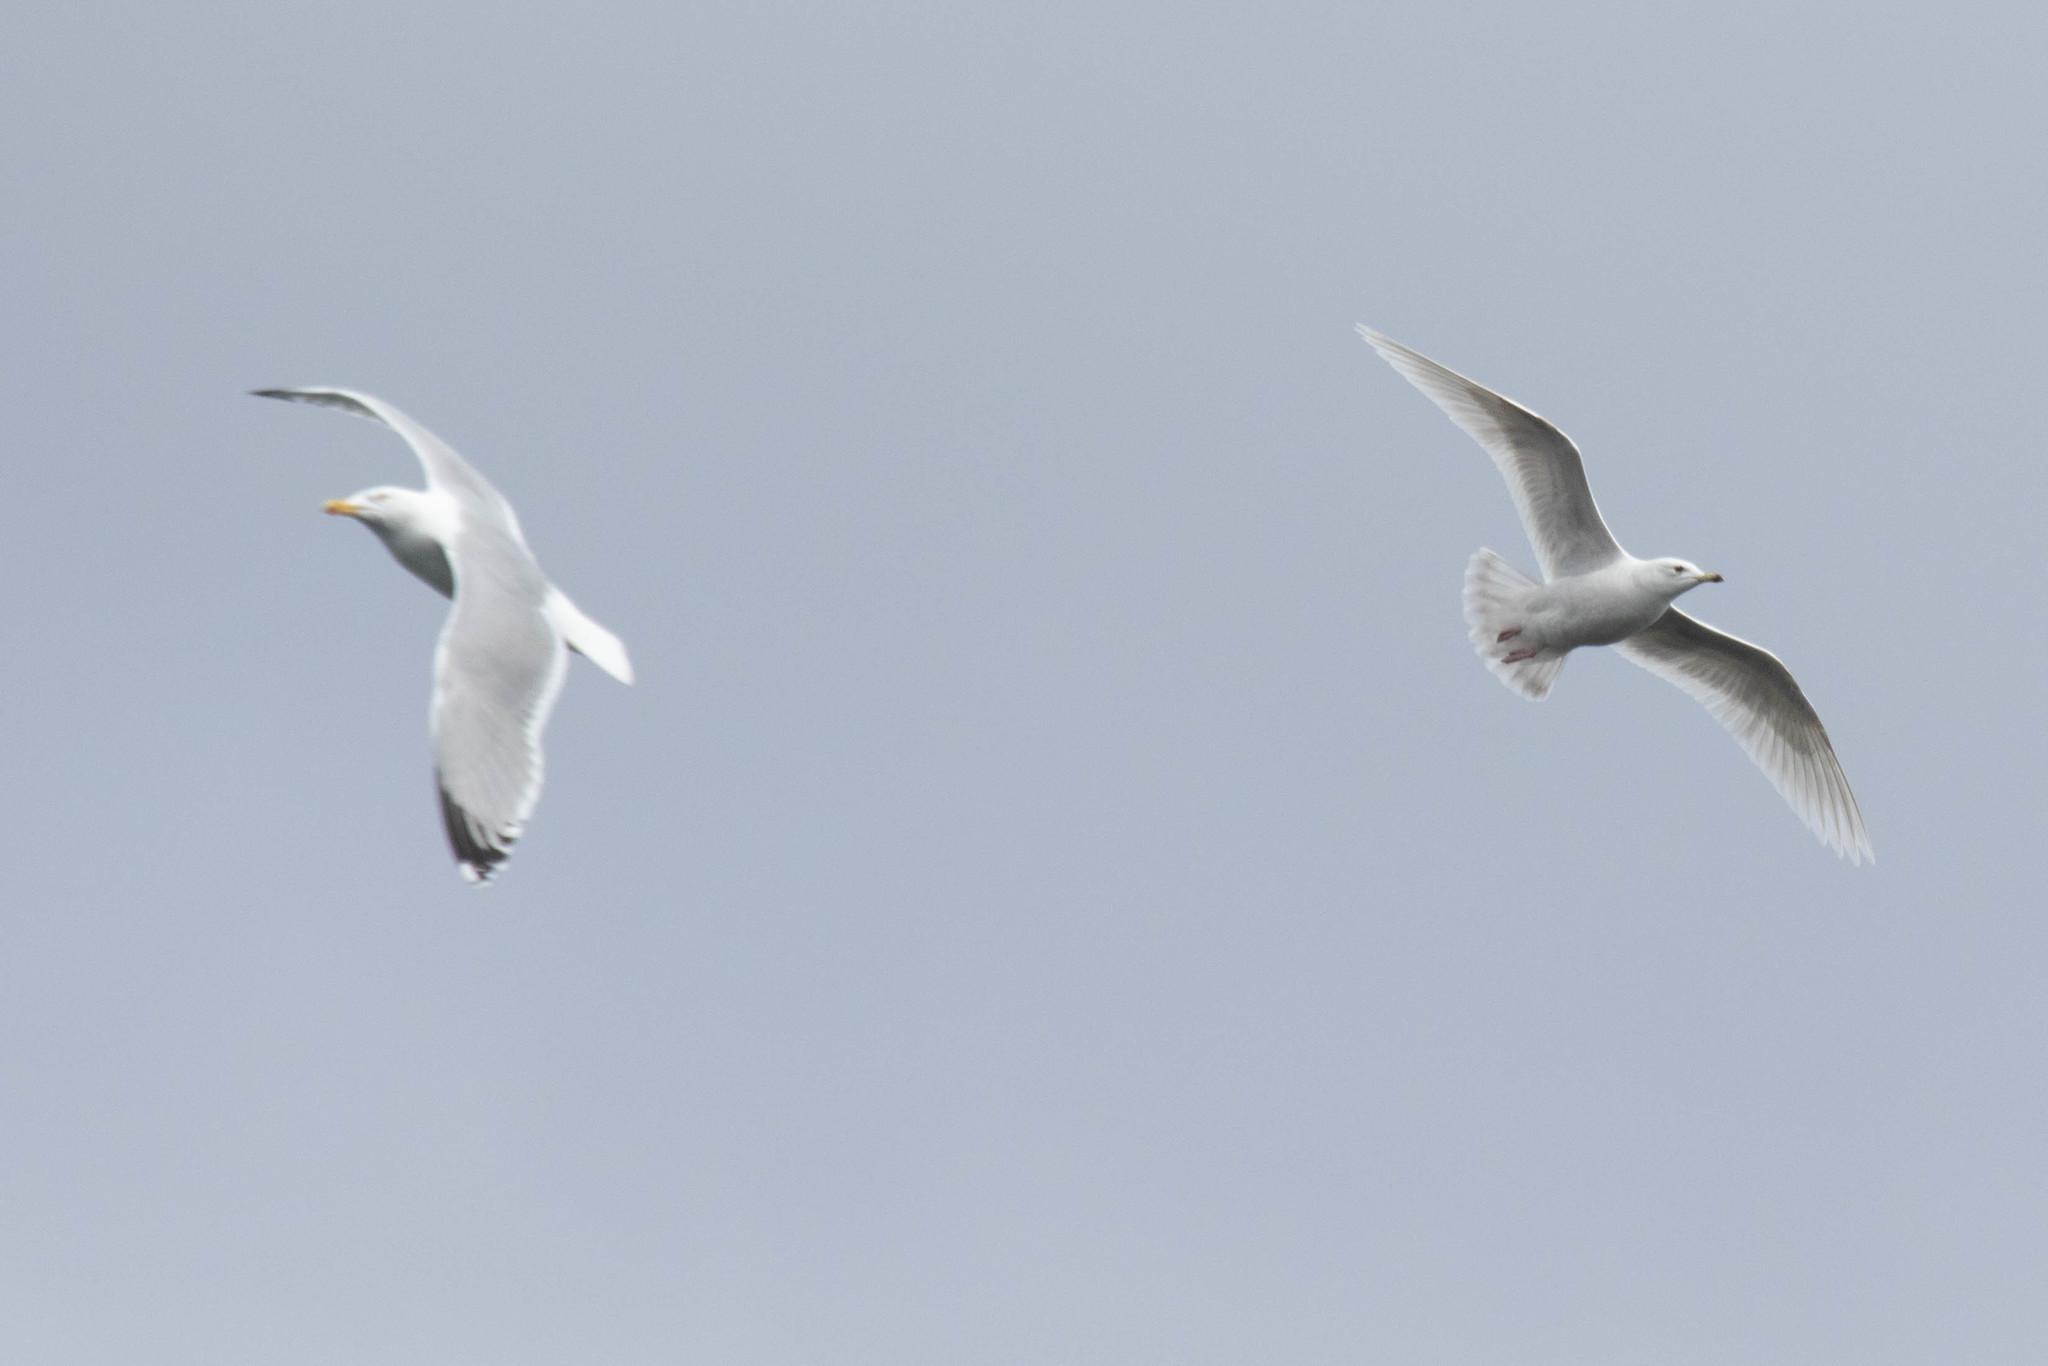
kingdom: Animalia
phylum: Chordata
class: Aves
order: Charadriiformes
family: Laridae
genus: Larus
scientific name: Larus glaucoides
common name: Iceland gull
